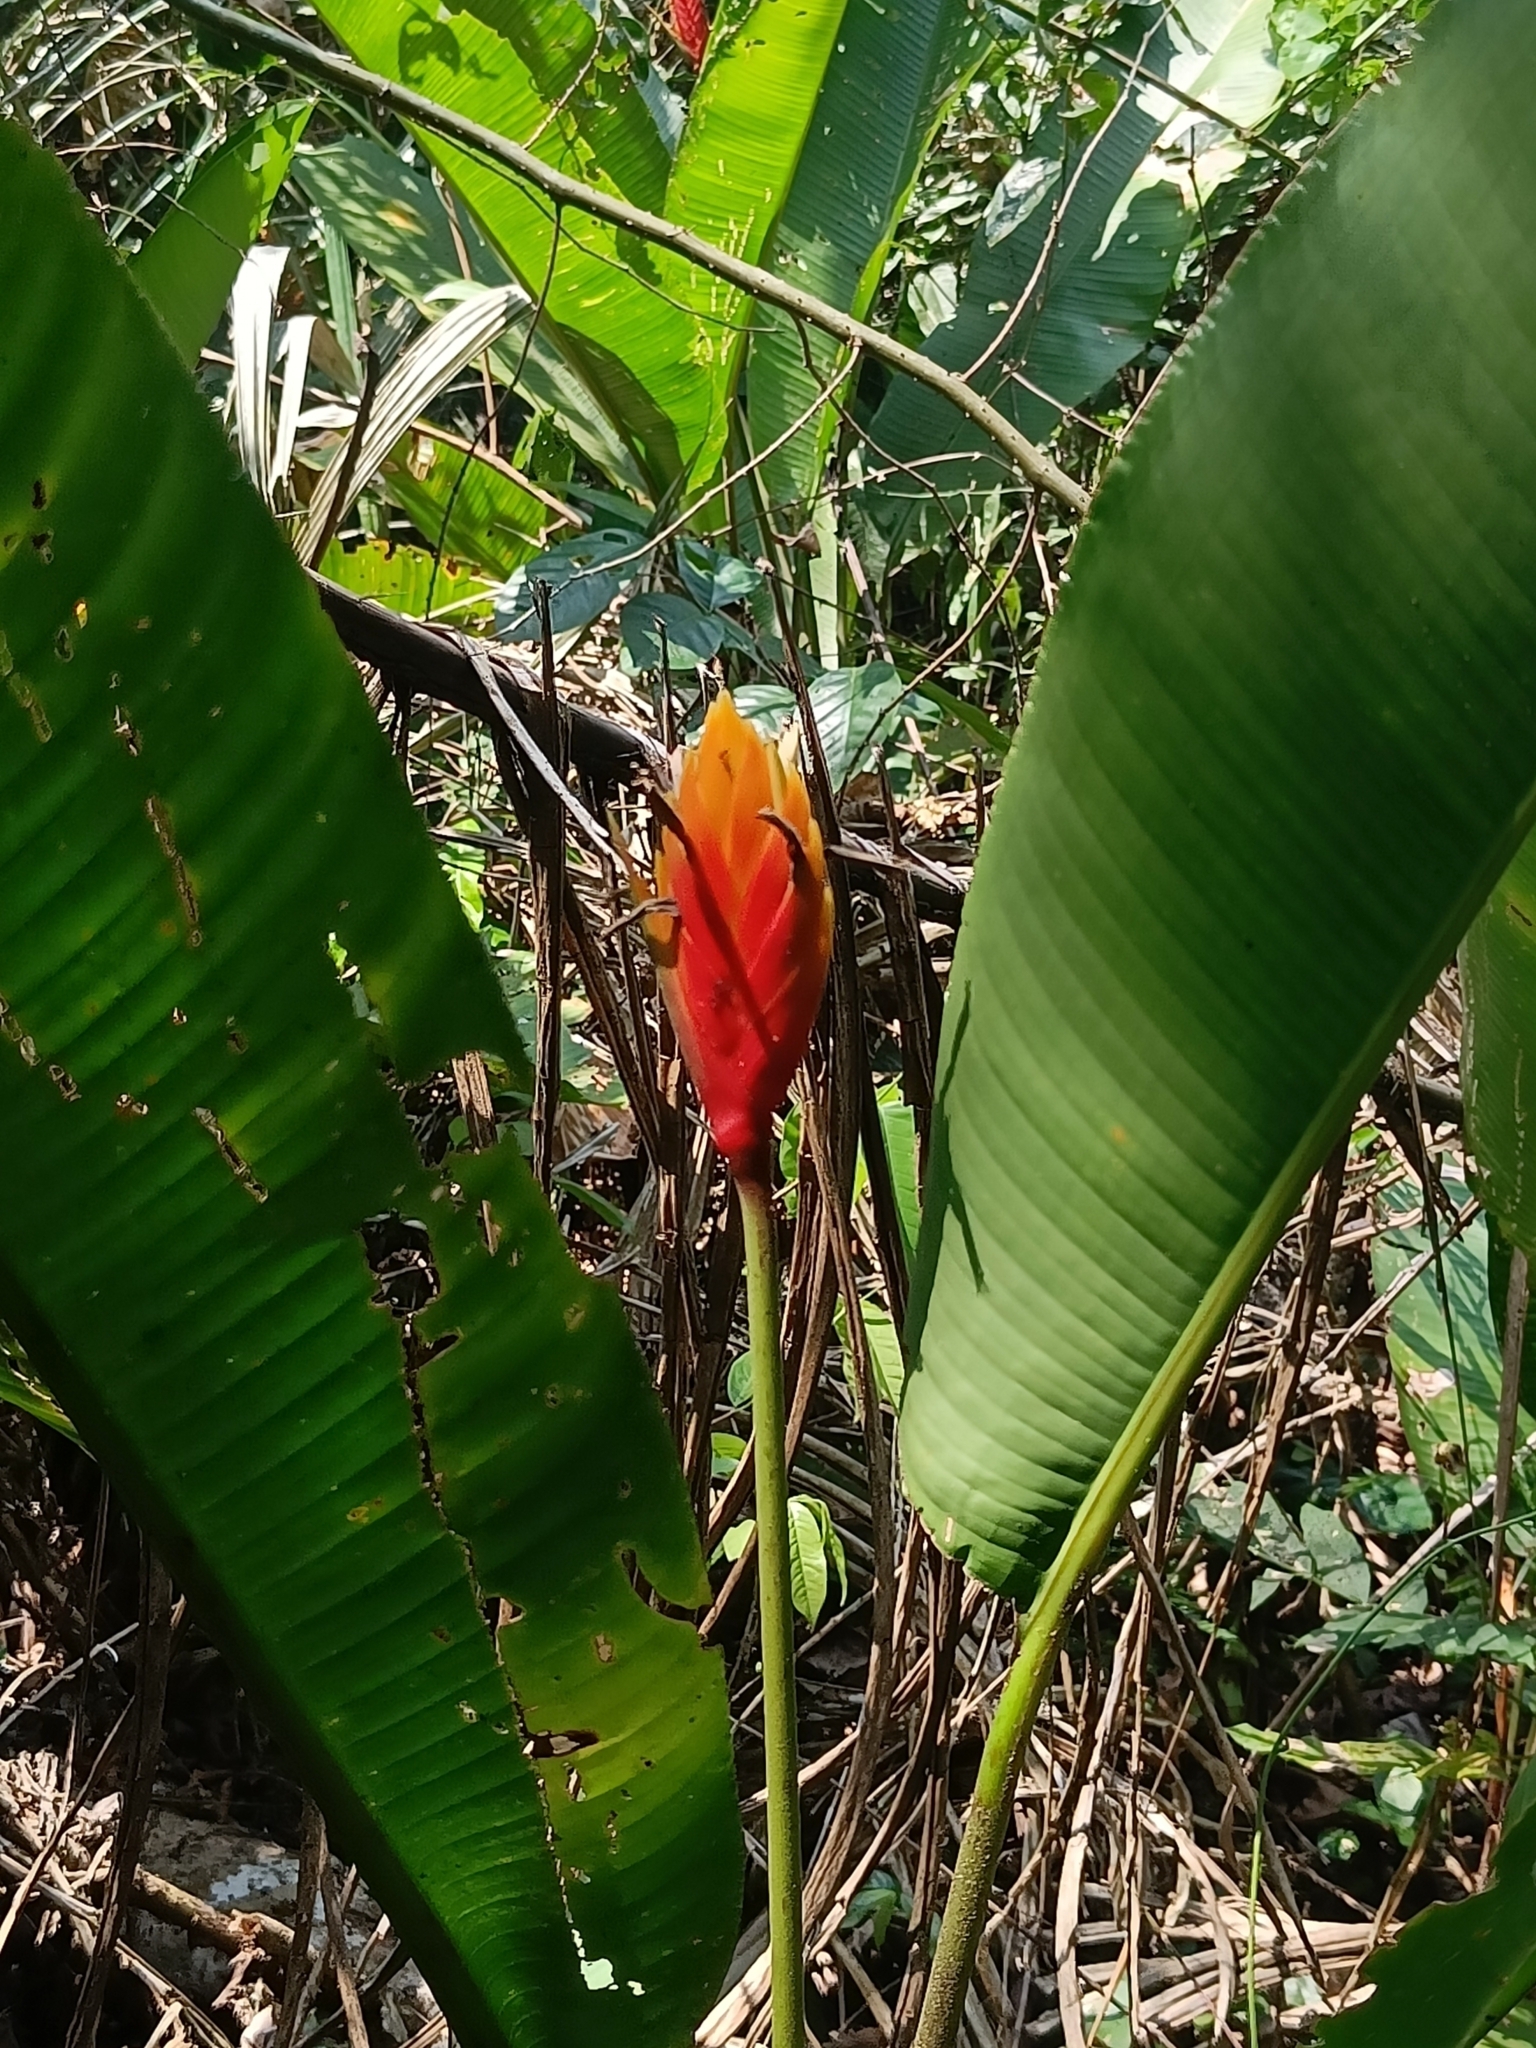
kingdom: Plantae
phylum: Tracheophyta
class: Liliopsida
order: Zingiberales
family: Heliconiaceae
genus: Heliconia
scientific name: Heliconia episcopalis
